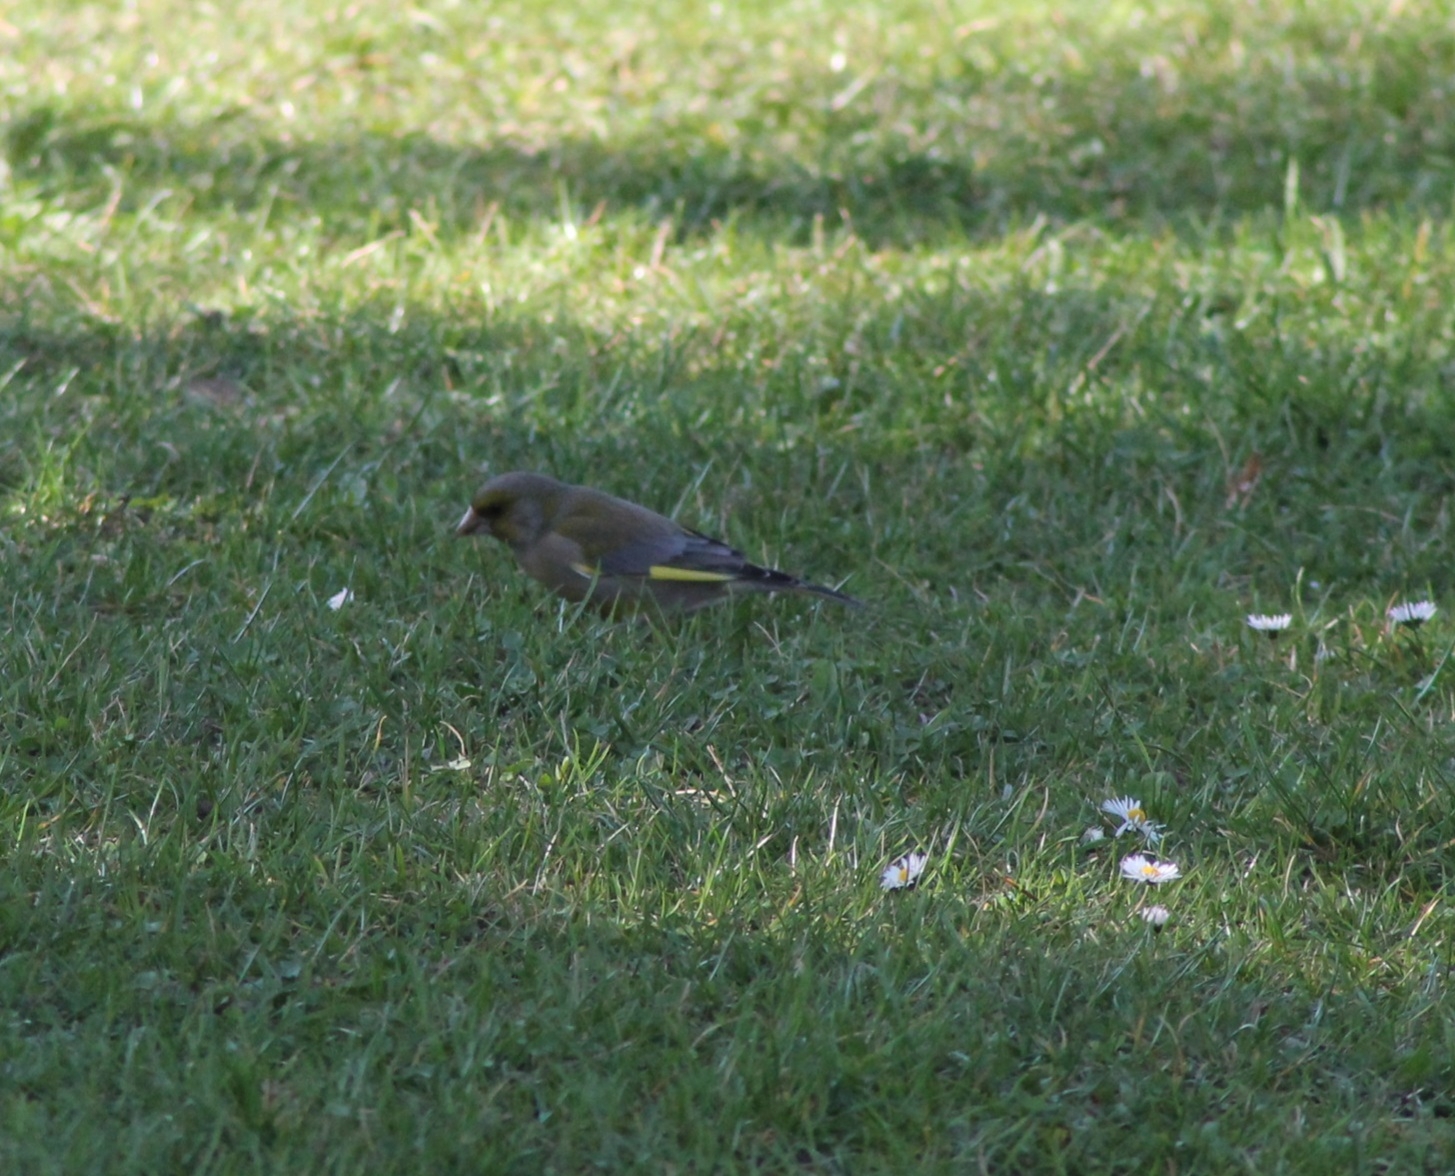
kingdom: Plantae
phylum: Tracheophyta
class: Liliopsida
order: Poales
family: Poaceae
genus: Chloris
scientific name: Chloris chloris
